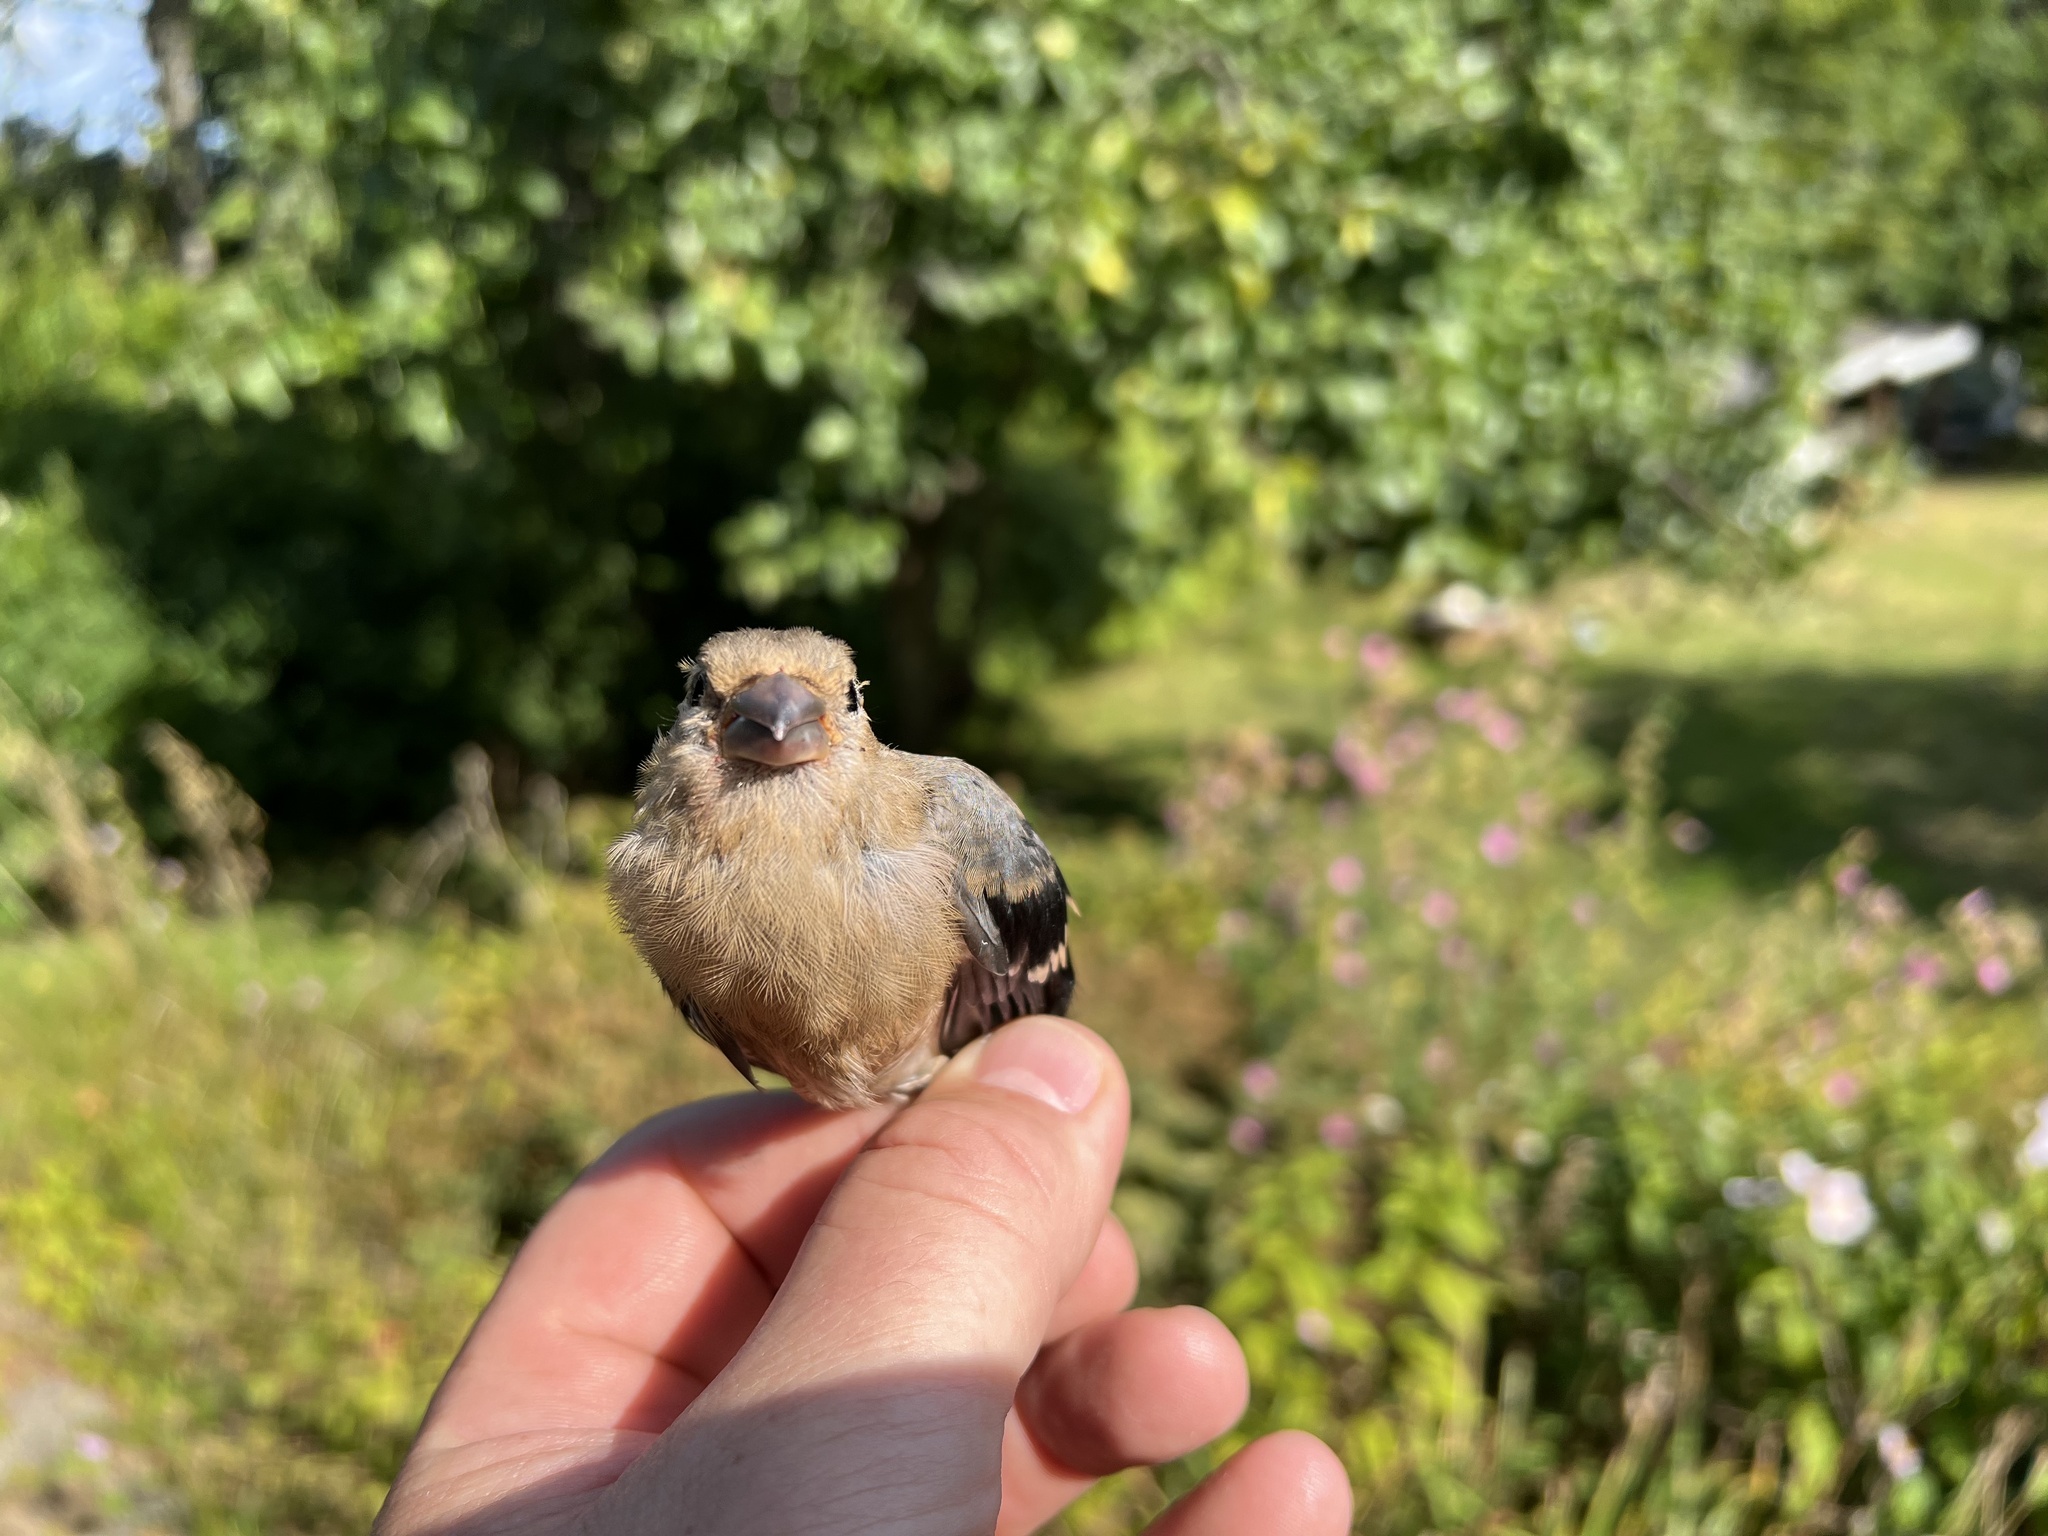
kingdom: Animalia
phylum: Chordata
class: Aves
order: Passeriformes
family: Fringillidae
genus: Pyrrhula
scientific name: Pyrrhula pyrrhula
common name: Eurasian bullfinch
